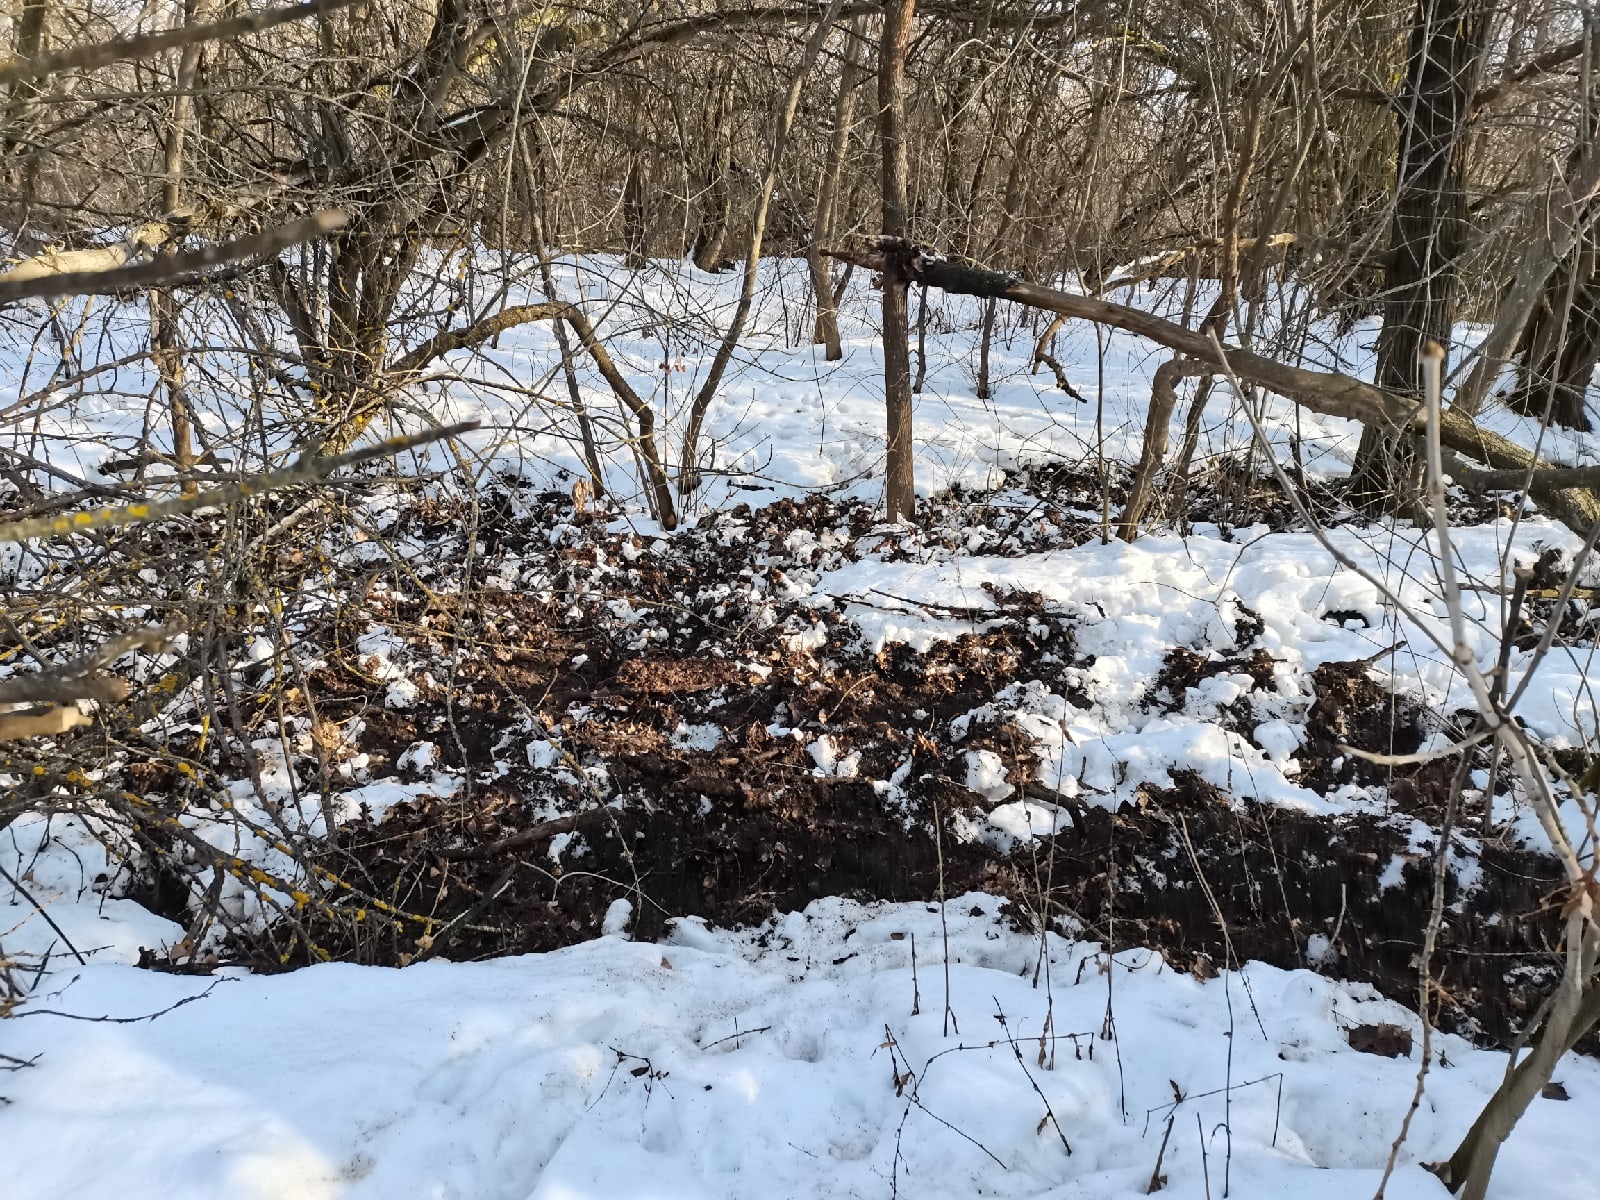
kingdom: Animalia
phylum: Chordata
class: Mammalia
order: Artiodactyla
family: Suidae
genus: Sus
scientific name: Sus scrofa
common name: Wild boar
